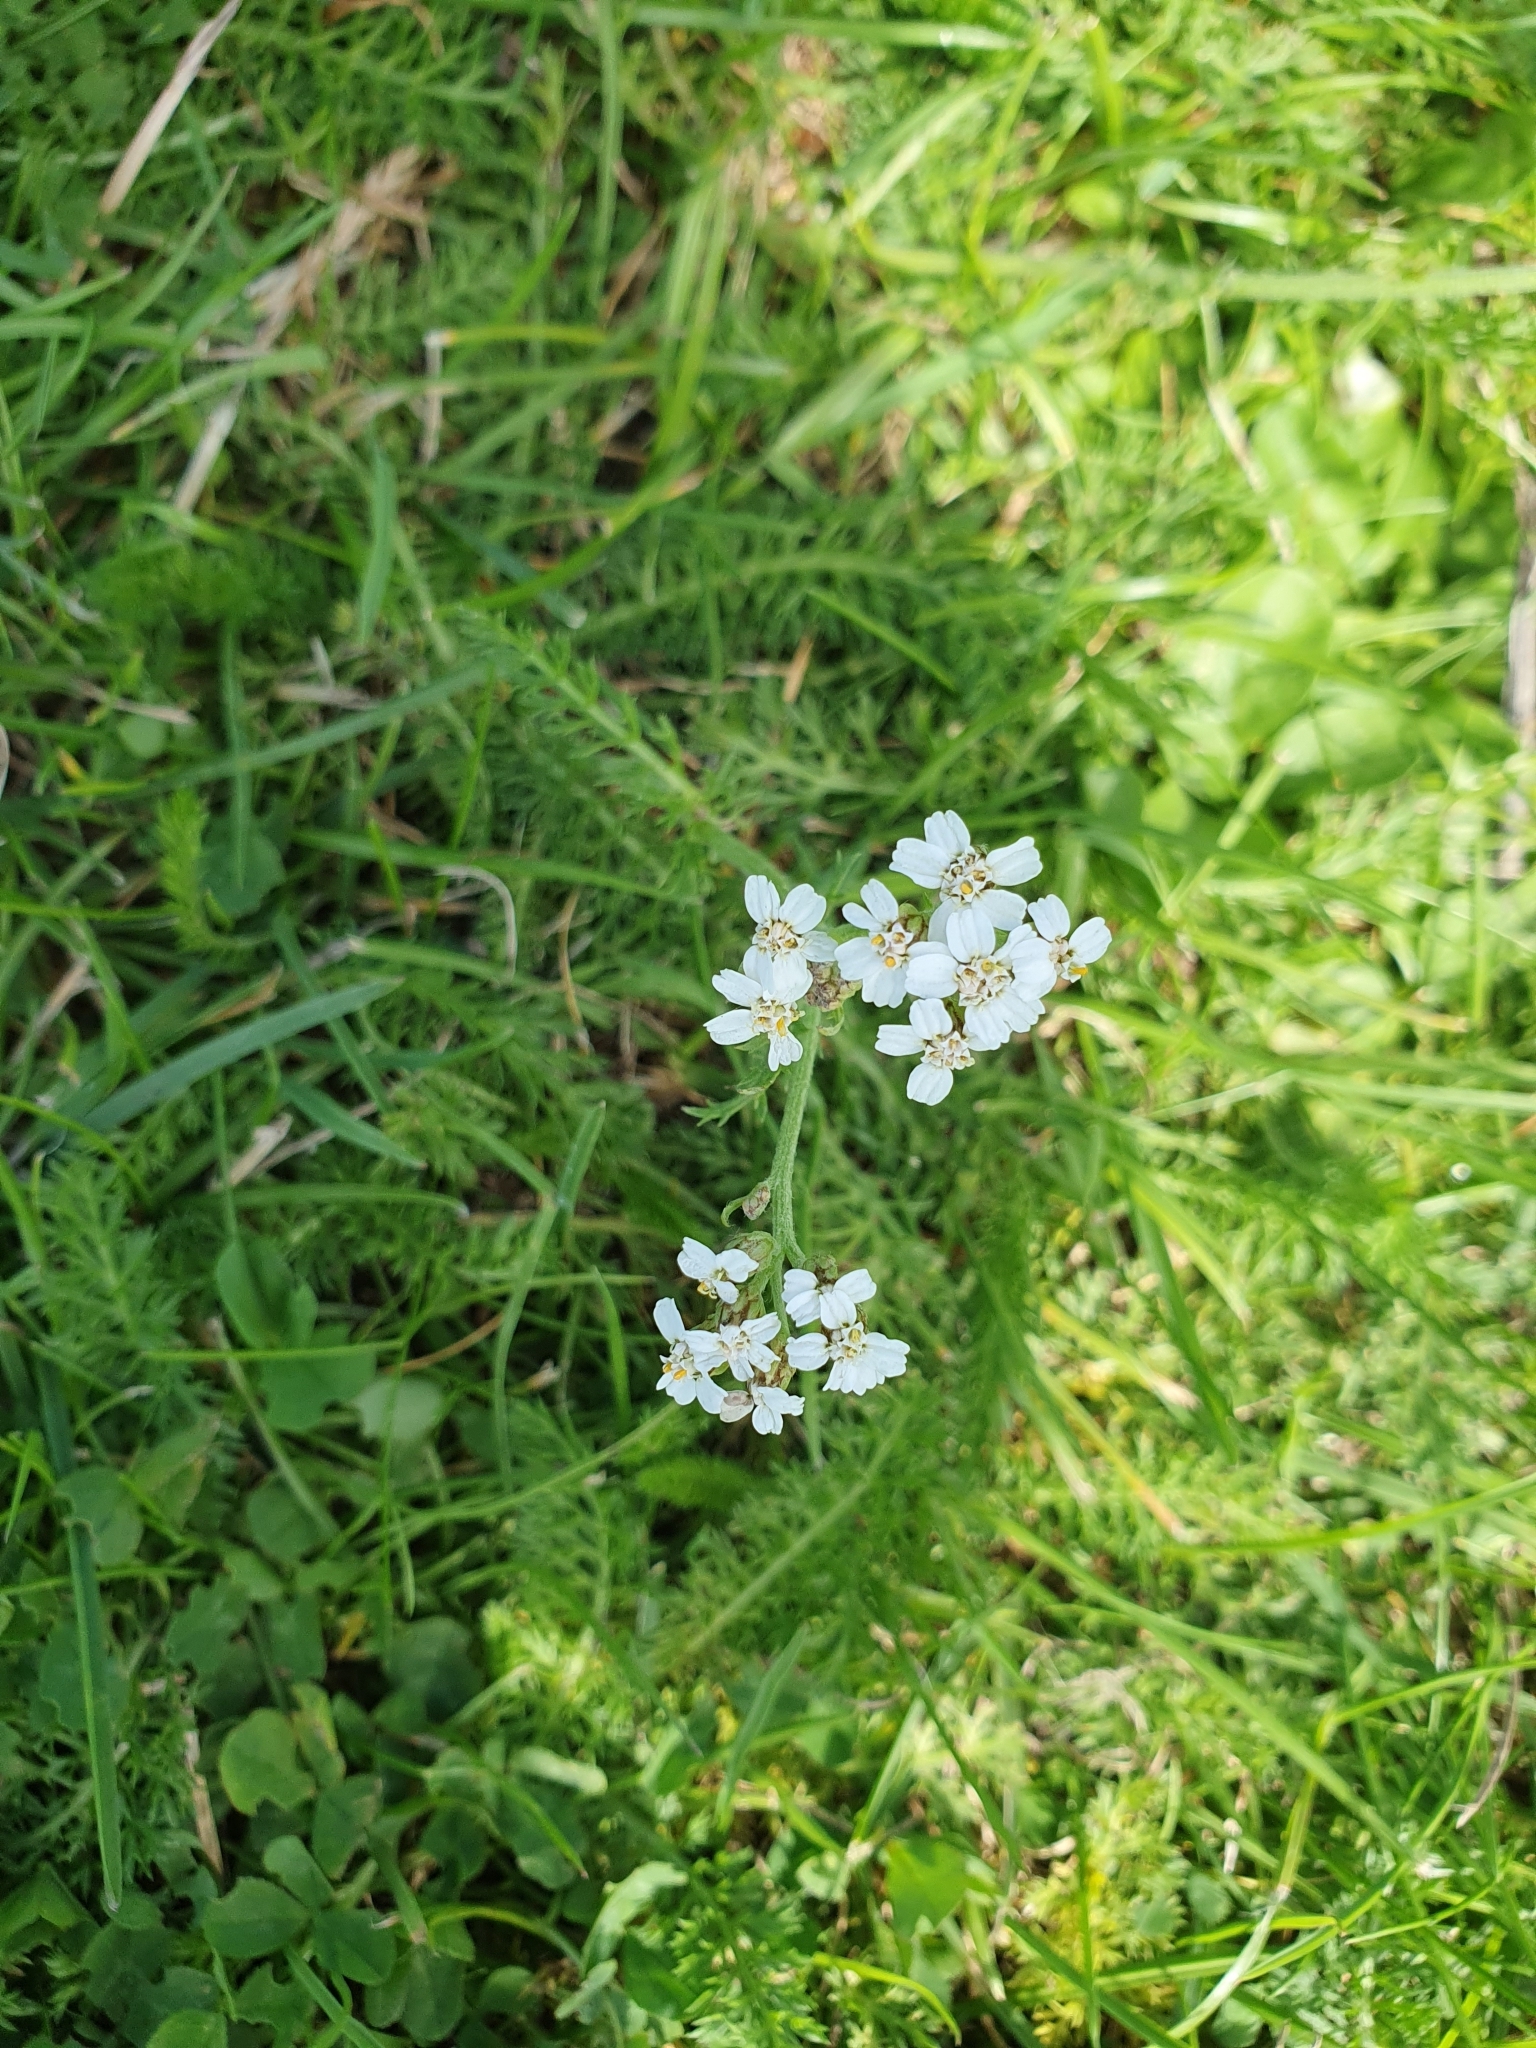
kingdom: Plantae
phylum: Tracheophyta
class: Magnoliopsida
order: Asterales
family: Asteraceae
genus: Achillea
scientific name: Achillea millefolium
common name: Yarrow
